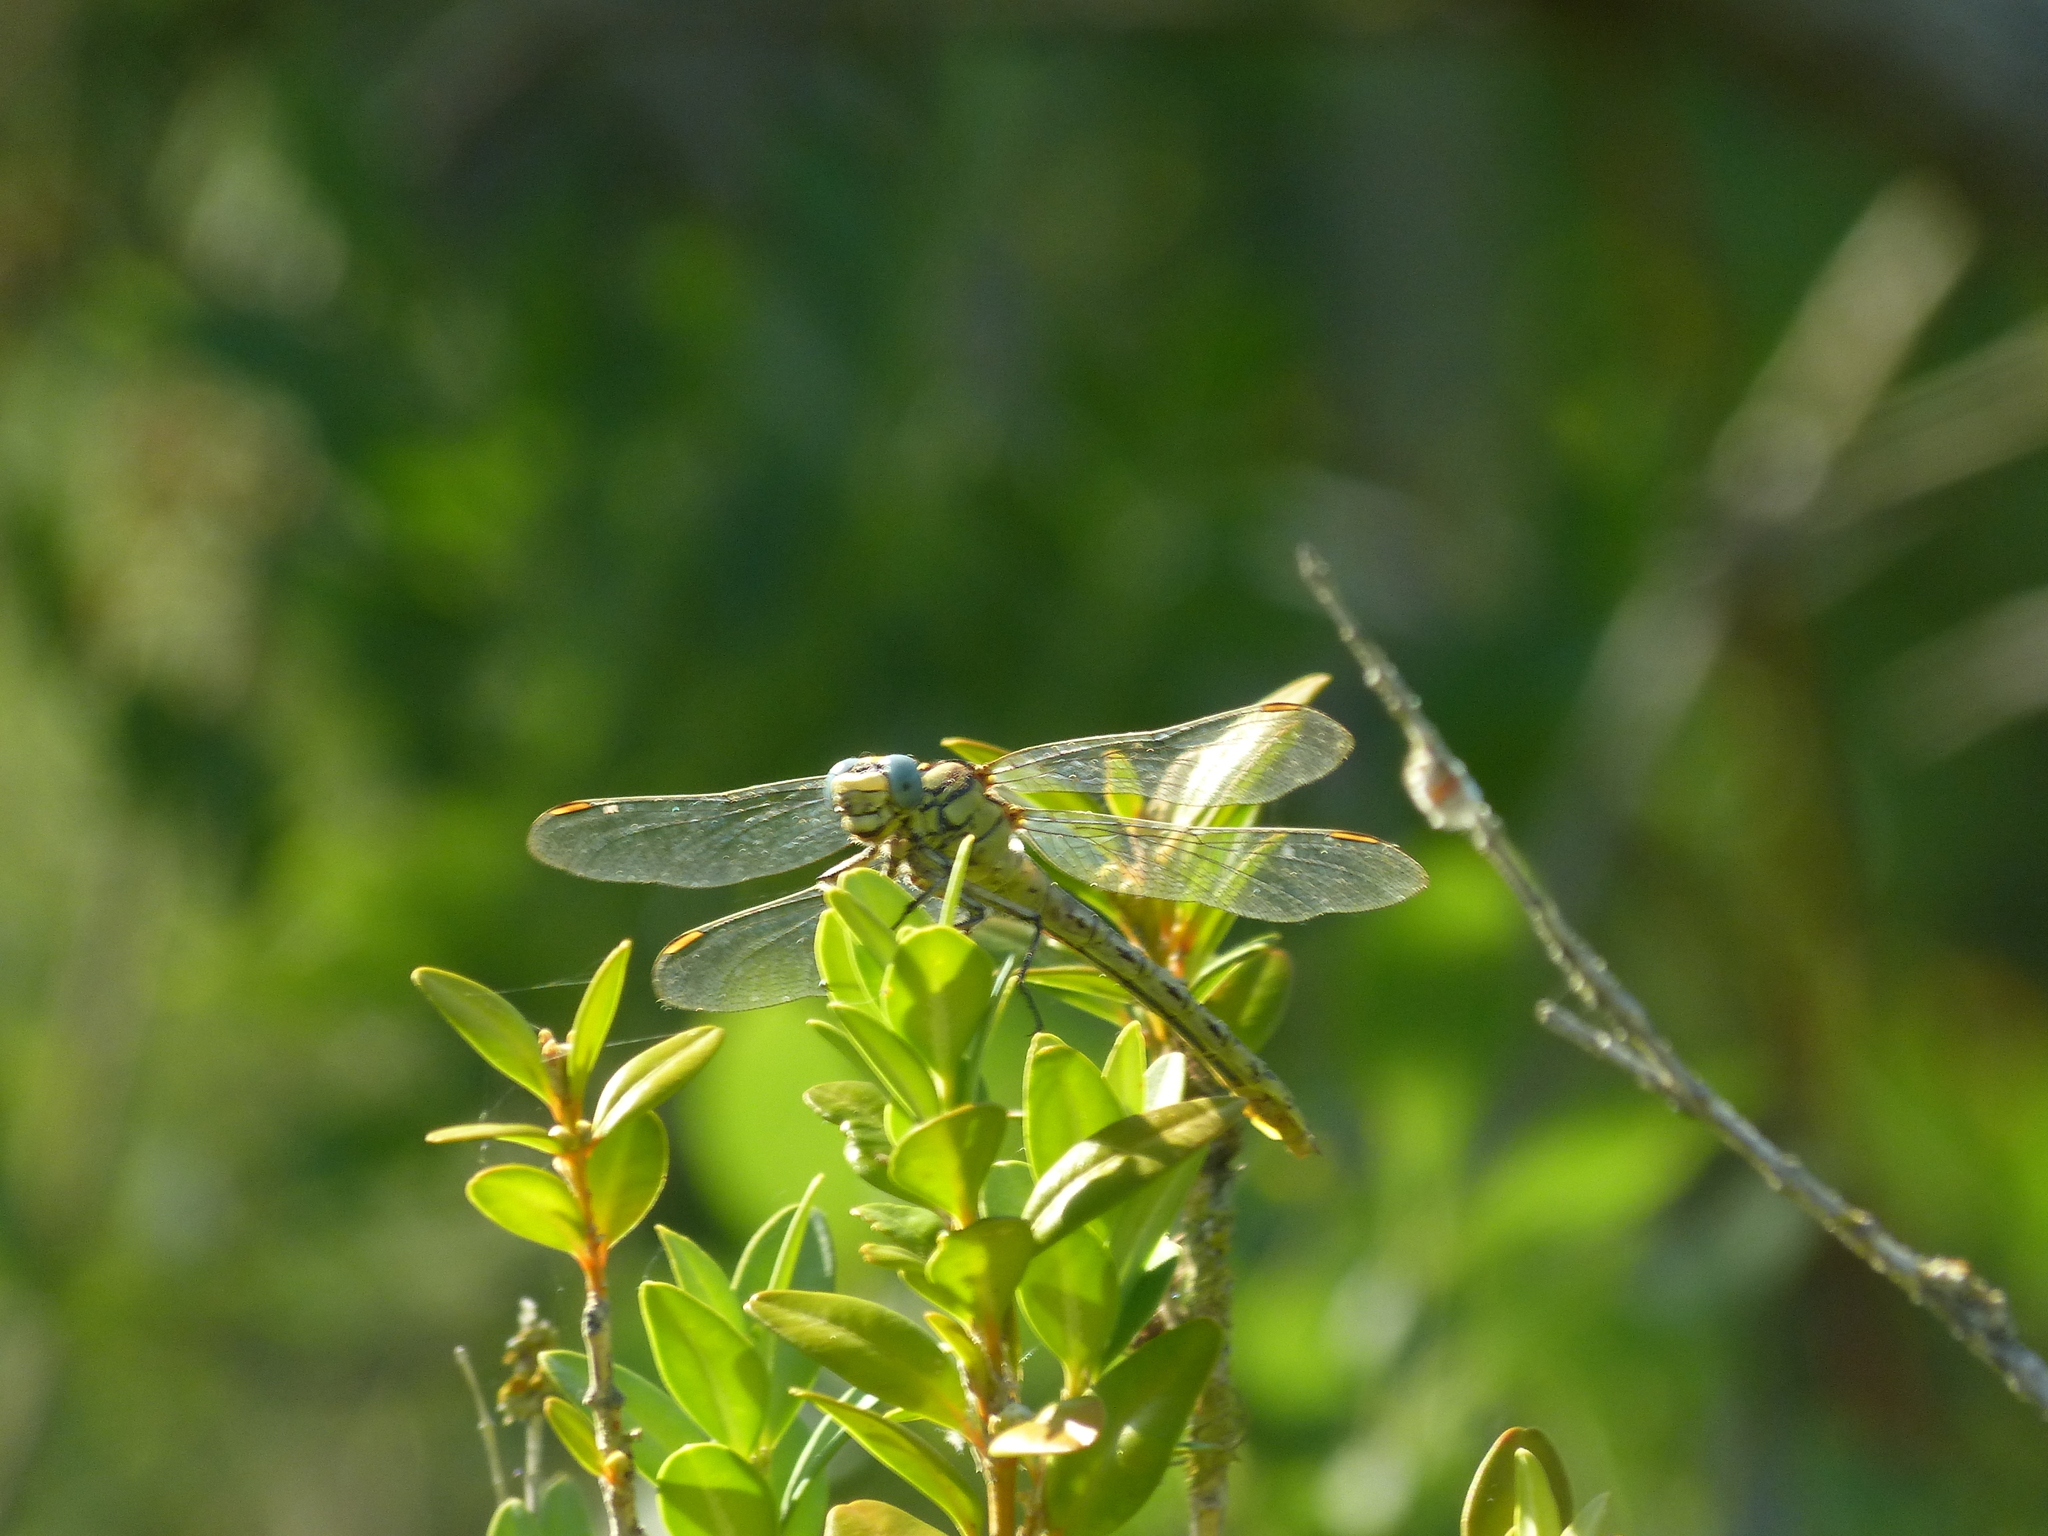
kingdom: Animalia
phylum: Arthropoda
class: Insecta
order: Odonata
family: Gomphidae
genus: Gomphus
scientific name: Gomphus simillimus
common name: Yellow clubtail
